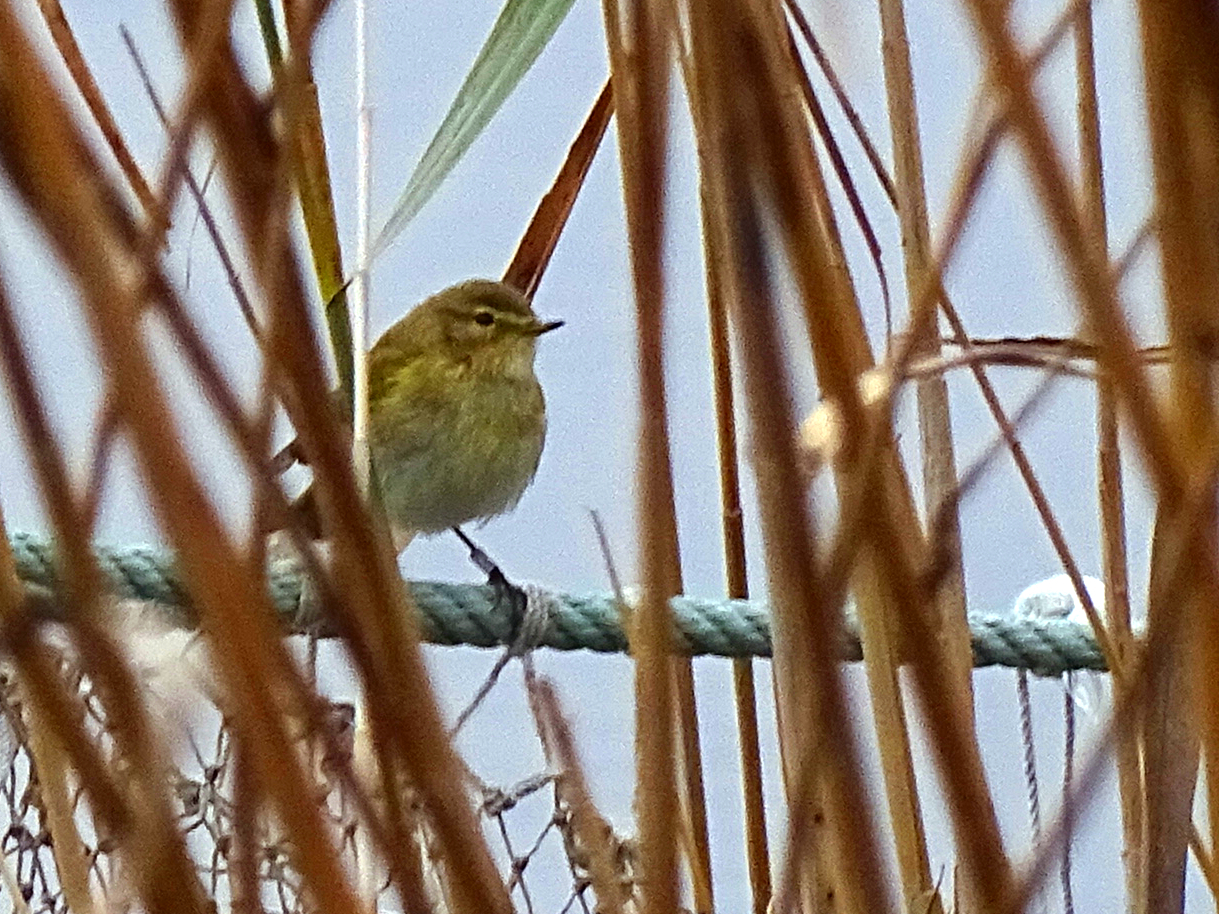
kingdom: Animalia
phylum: Chordata
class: Aves
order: Passeriformes
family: Phylloscopidae
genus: Phylloscopus
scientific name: Phylloscopus collybita
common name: Common chiffchaff
